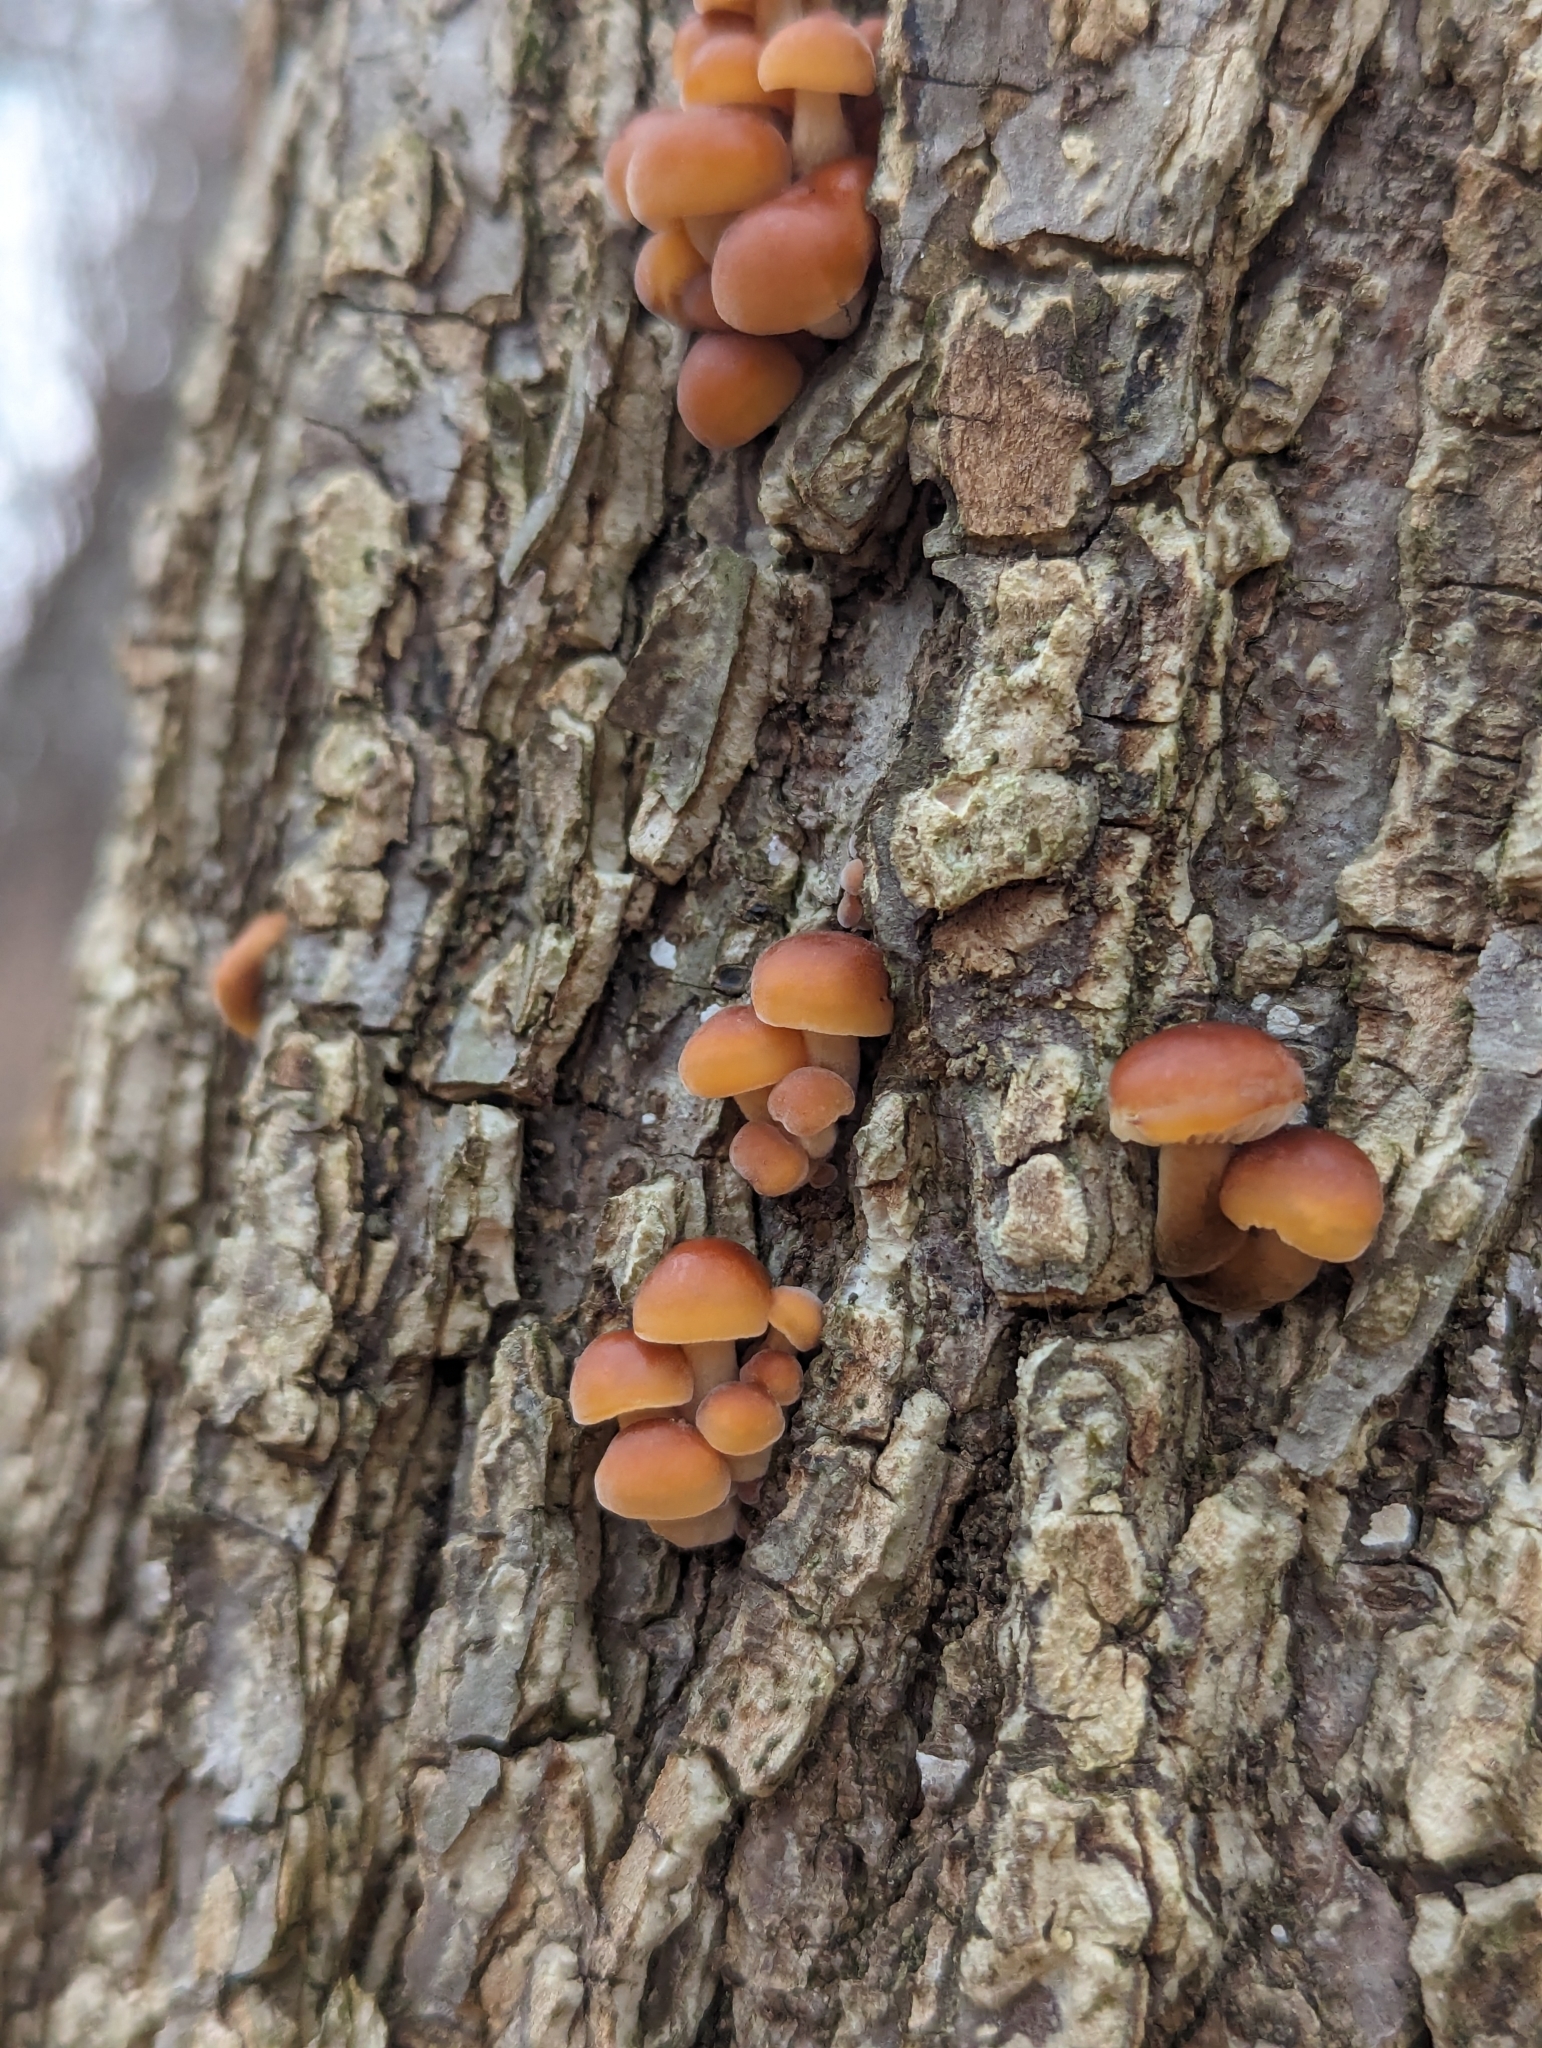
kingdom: Fungi
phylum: Basidiomycota
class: Agaricomycetes
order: Agaricales
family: Physalacriaceae
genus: Flammulina
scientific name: Flammulina velutipes
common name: Velvet shank
